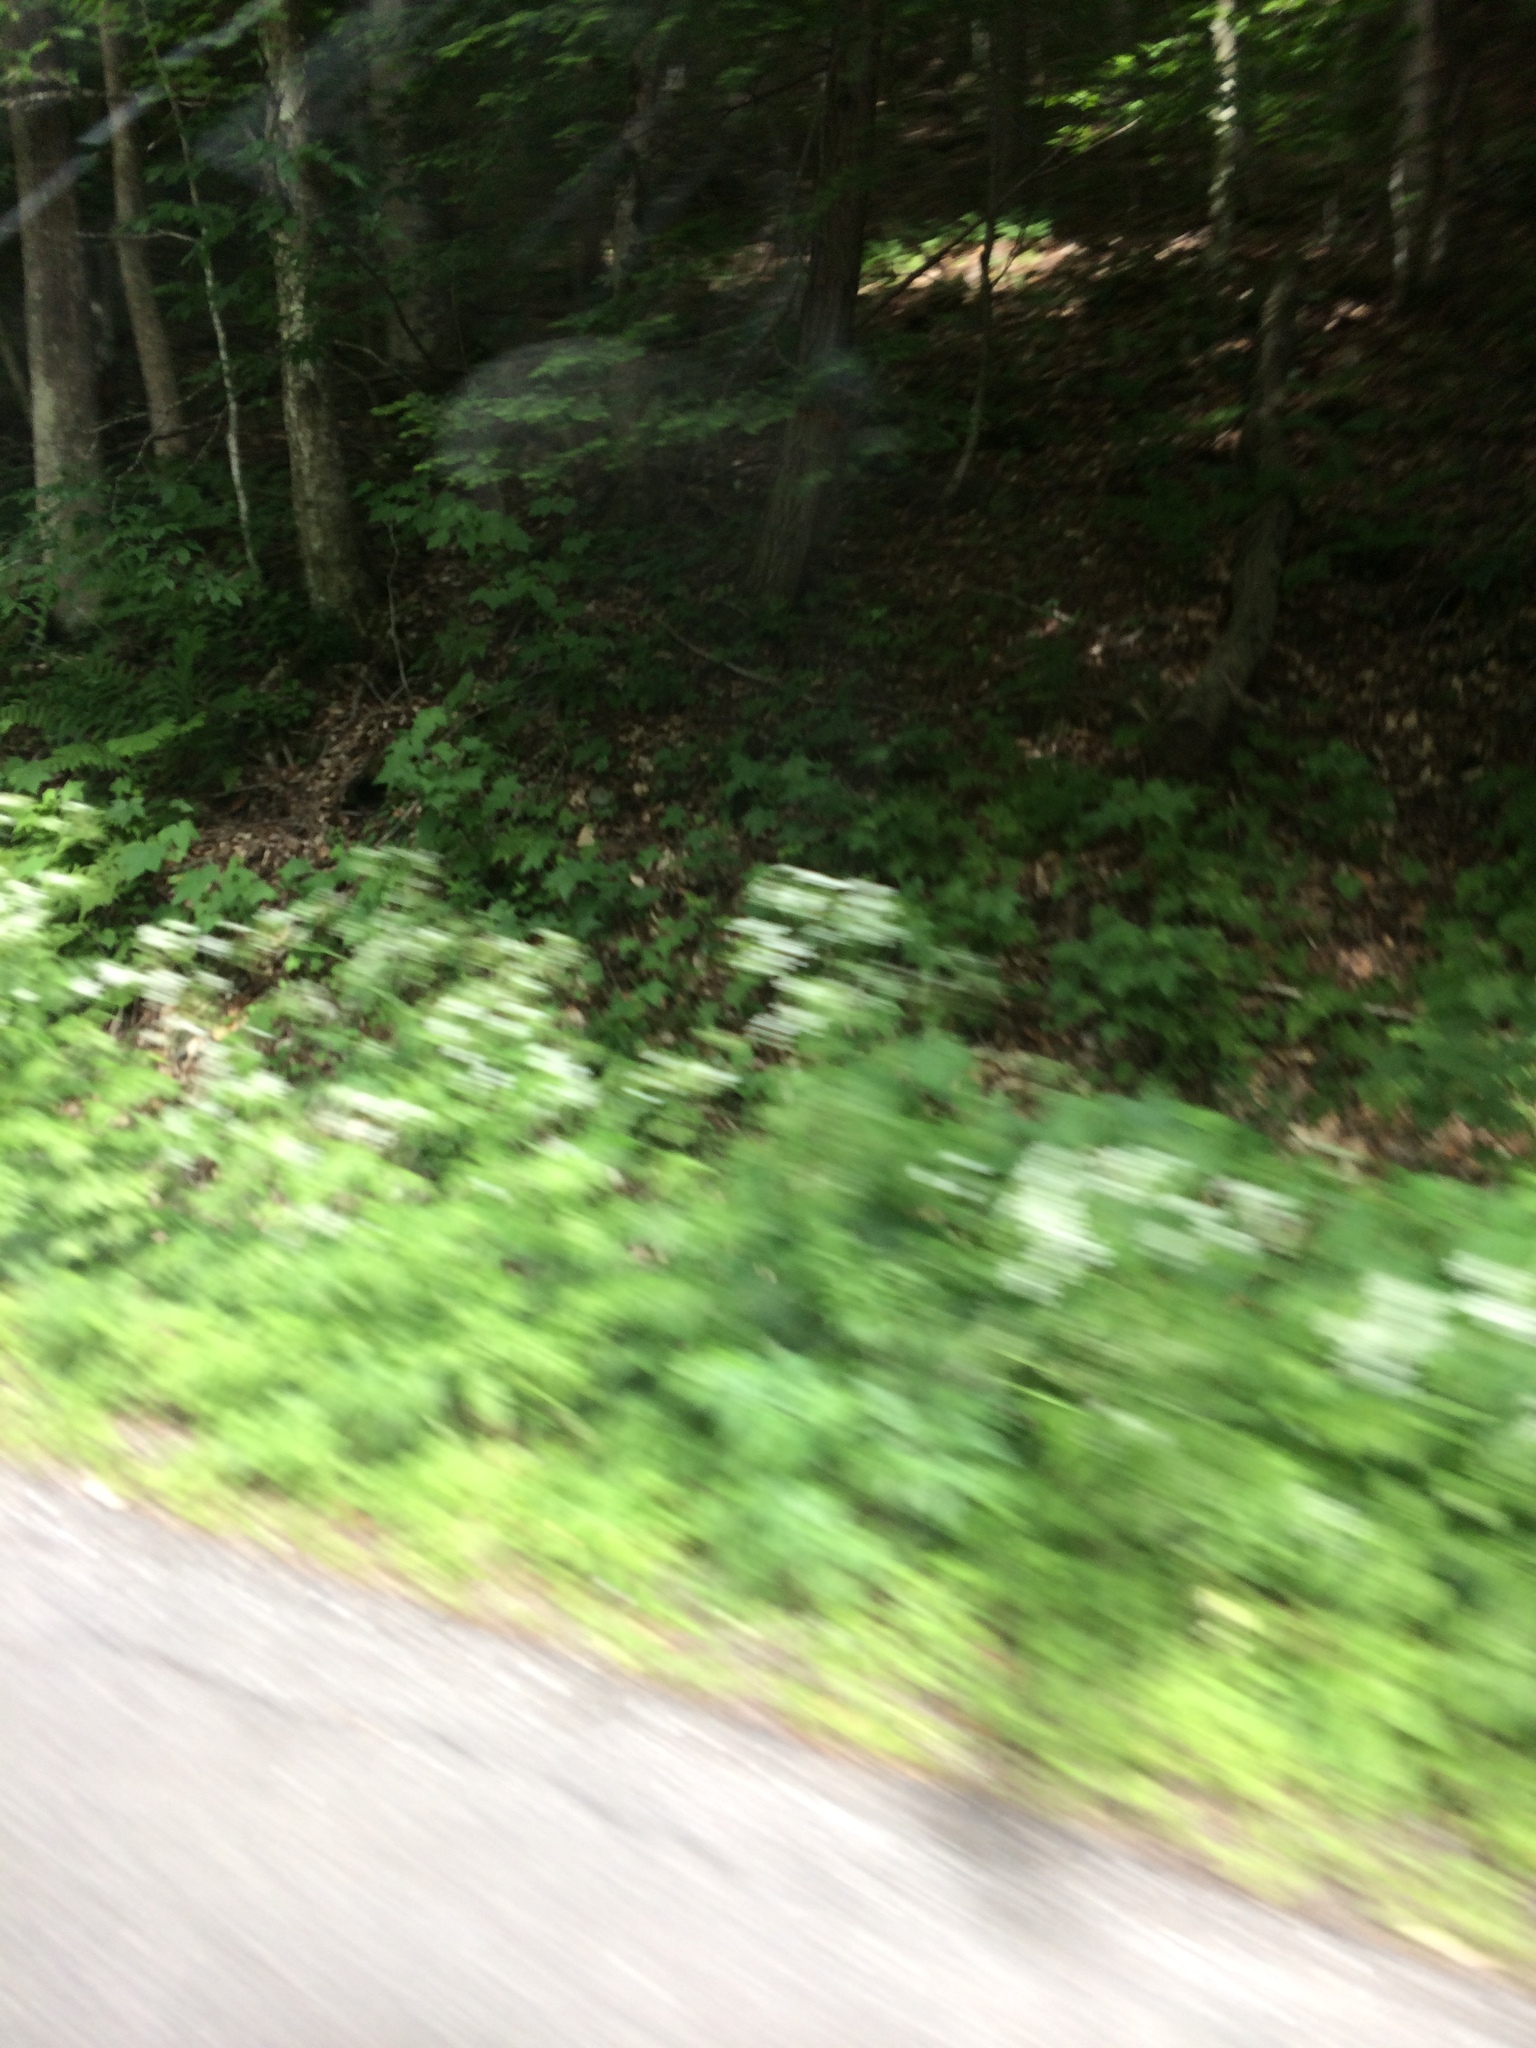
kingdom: Plantae
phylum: Tracheophyta
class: Magnoliopsida
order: Apiales
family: Apiaceae
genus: Anthriscus
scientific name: Anthriscus sylvestris
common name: Cow parsley
